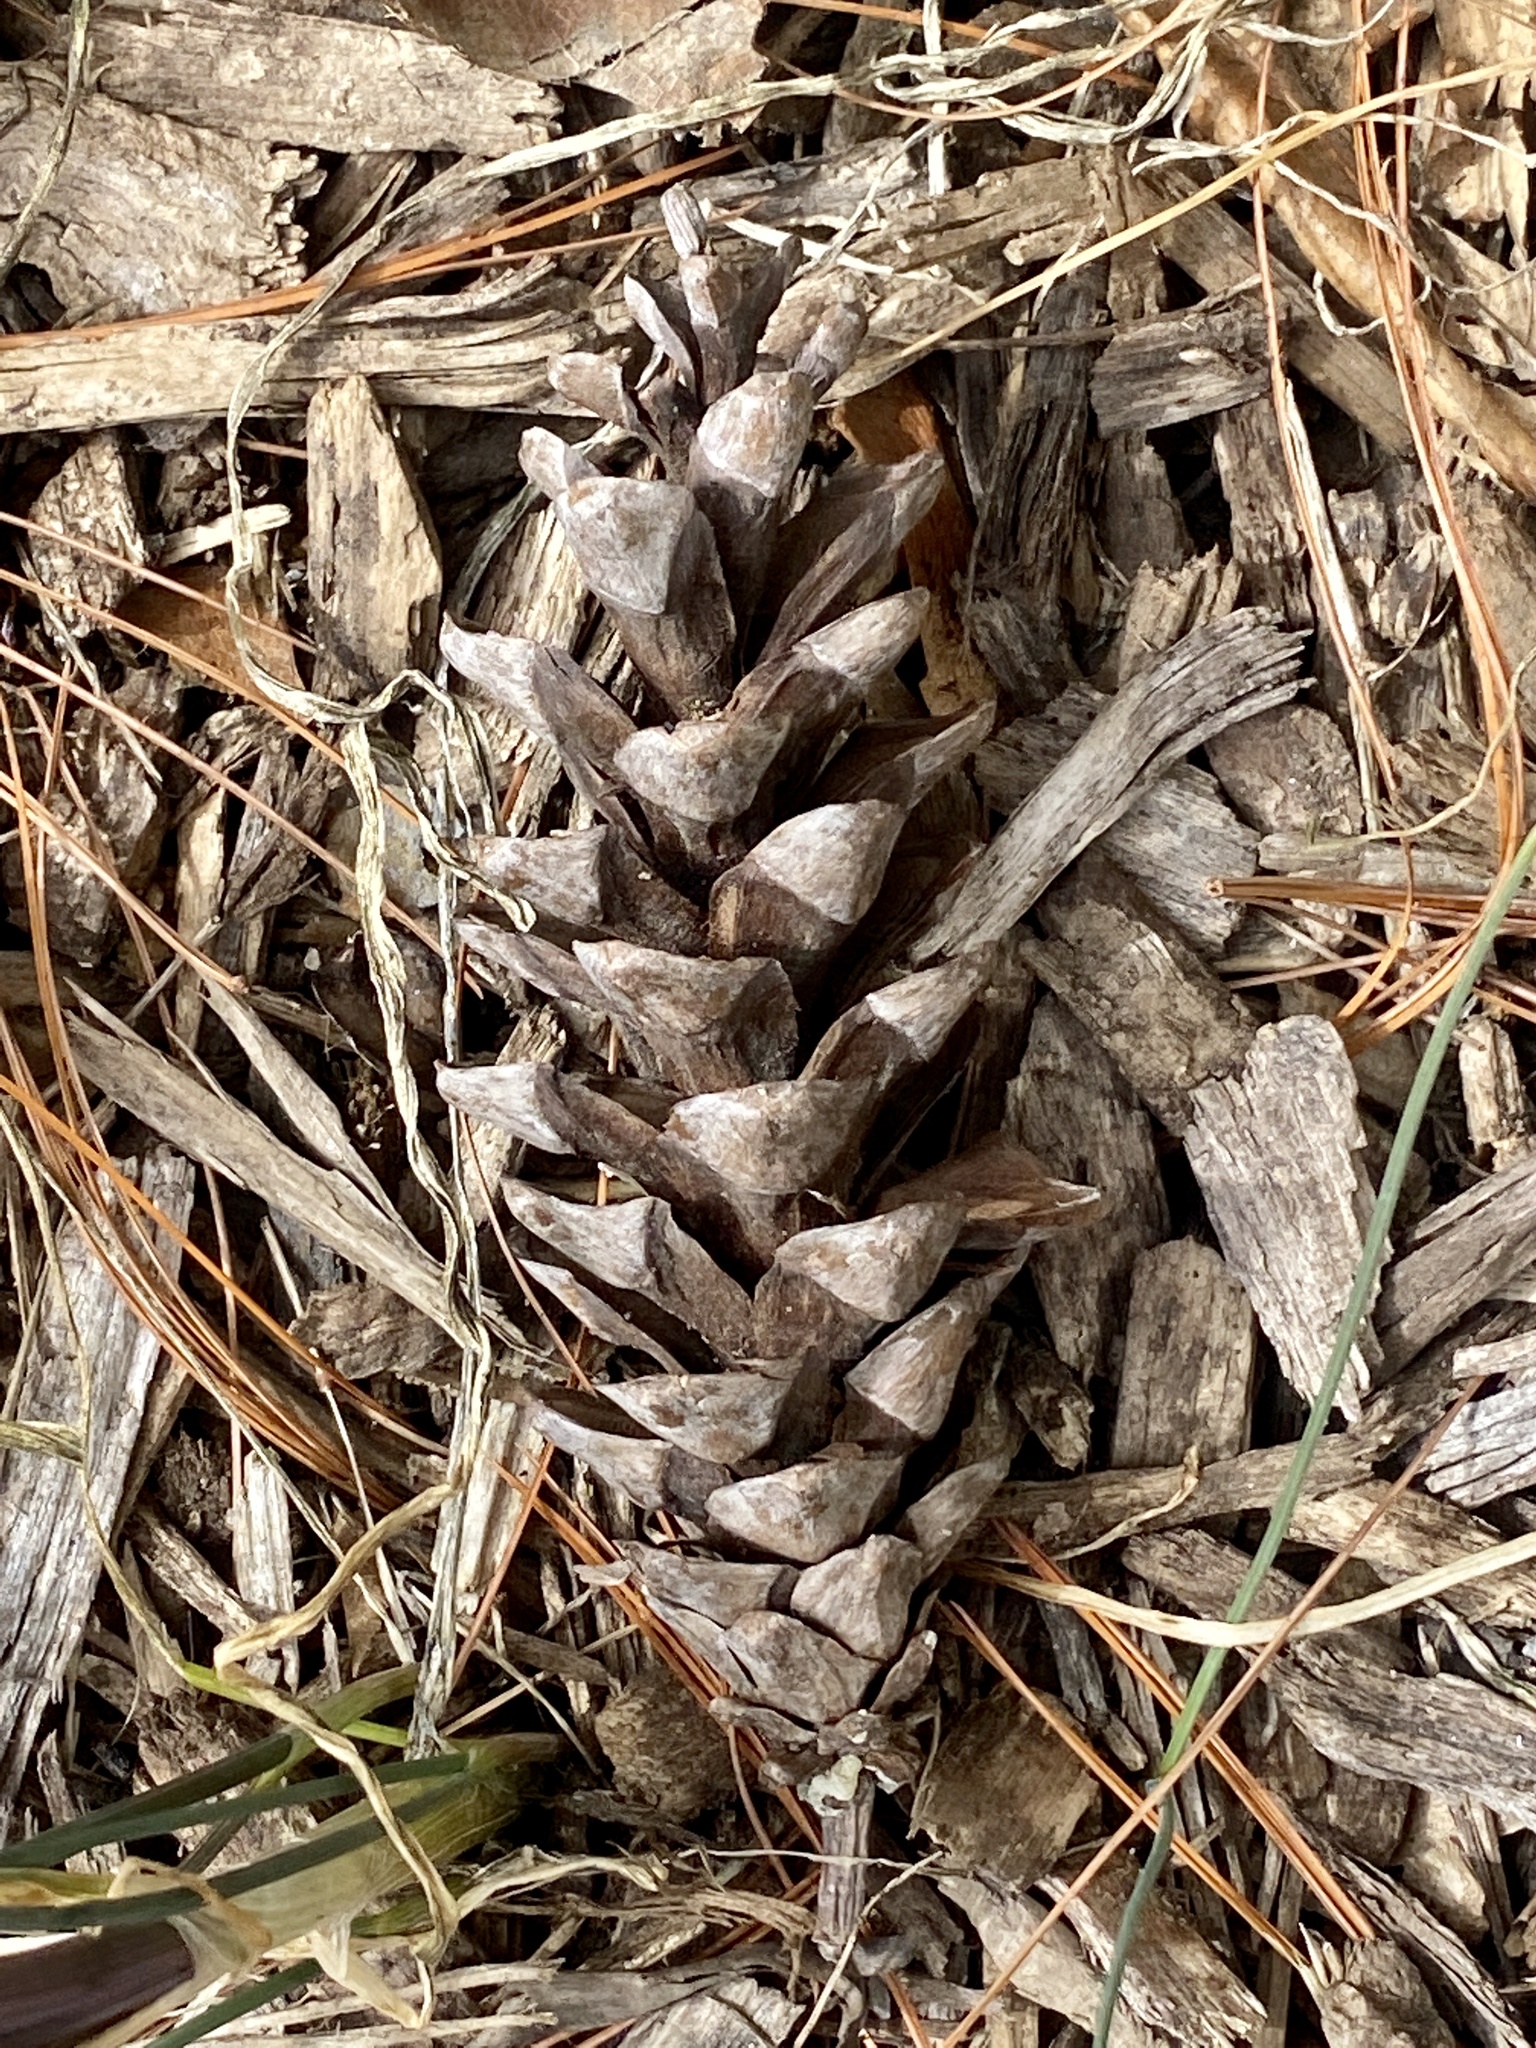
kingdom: Plantae
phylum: Tracheophyta
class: Pinopsida
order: Pinales
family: Pinaceae
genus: Pinus
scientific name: Pinus strobus
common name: Weymouth pine
